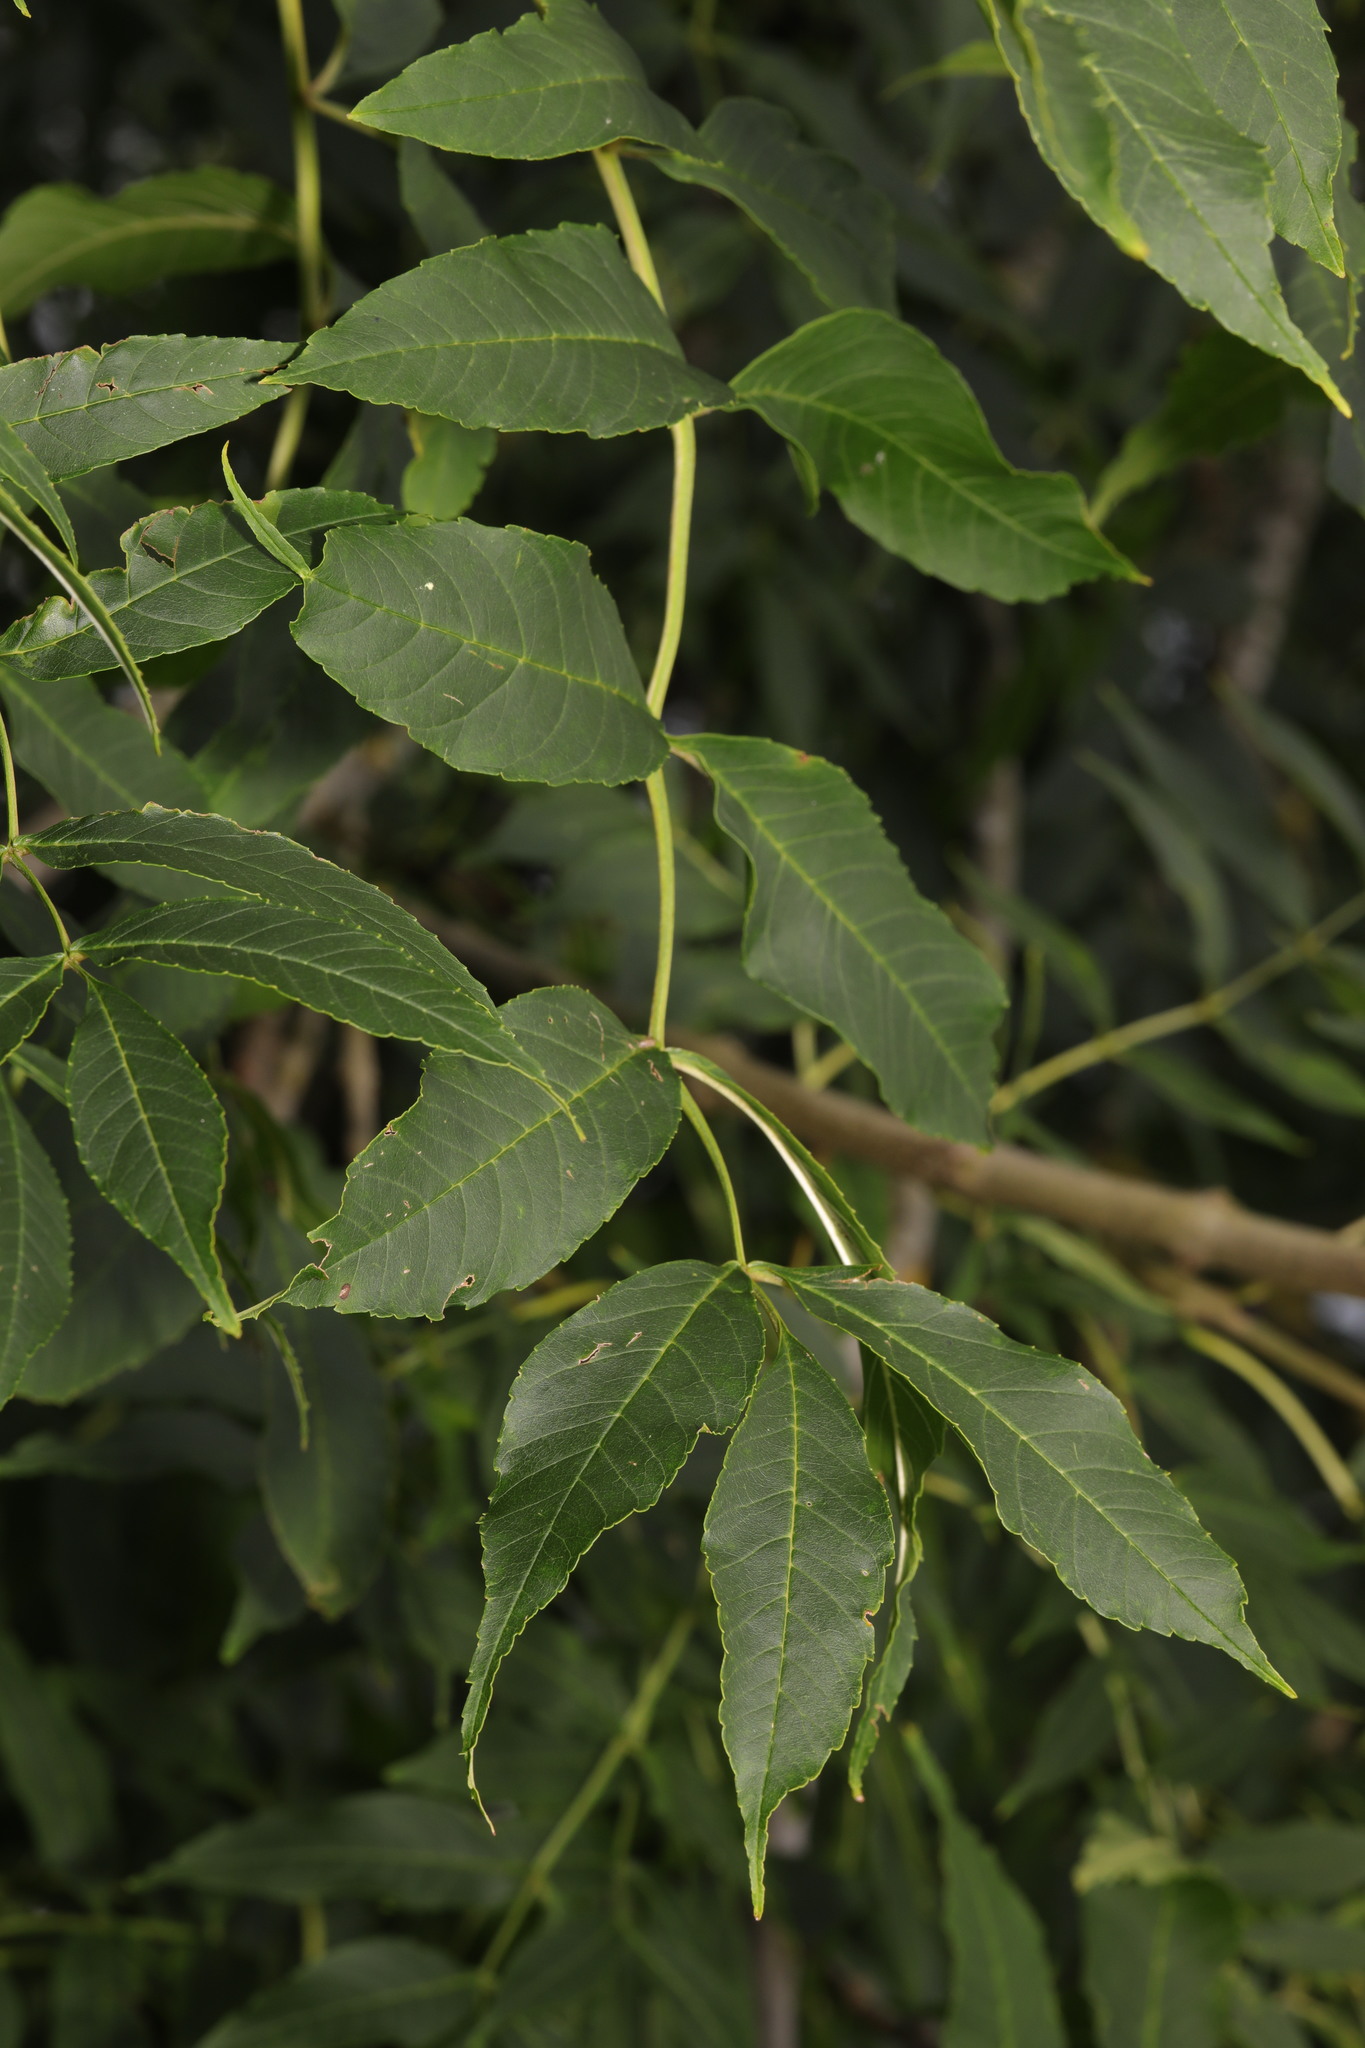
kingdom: Plantae
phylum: Tracheophyta
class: Magnoliopsida
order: Lamiales
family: Oleaceae
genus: Fraxinus
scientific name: Fraxinus excelsior
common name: European ash
